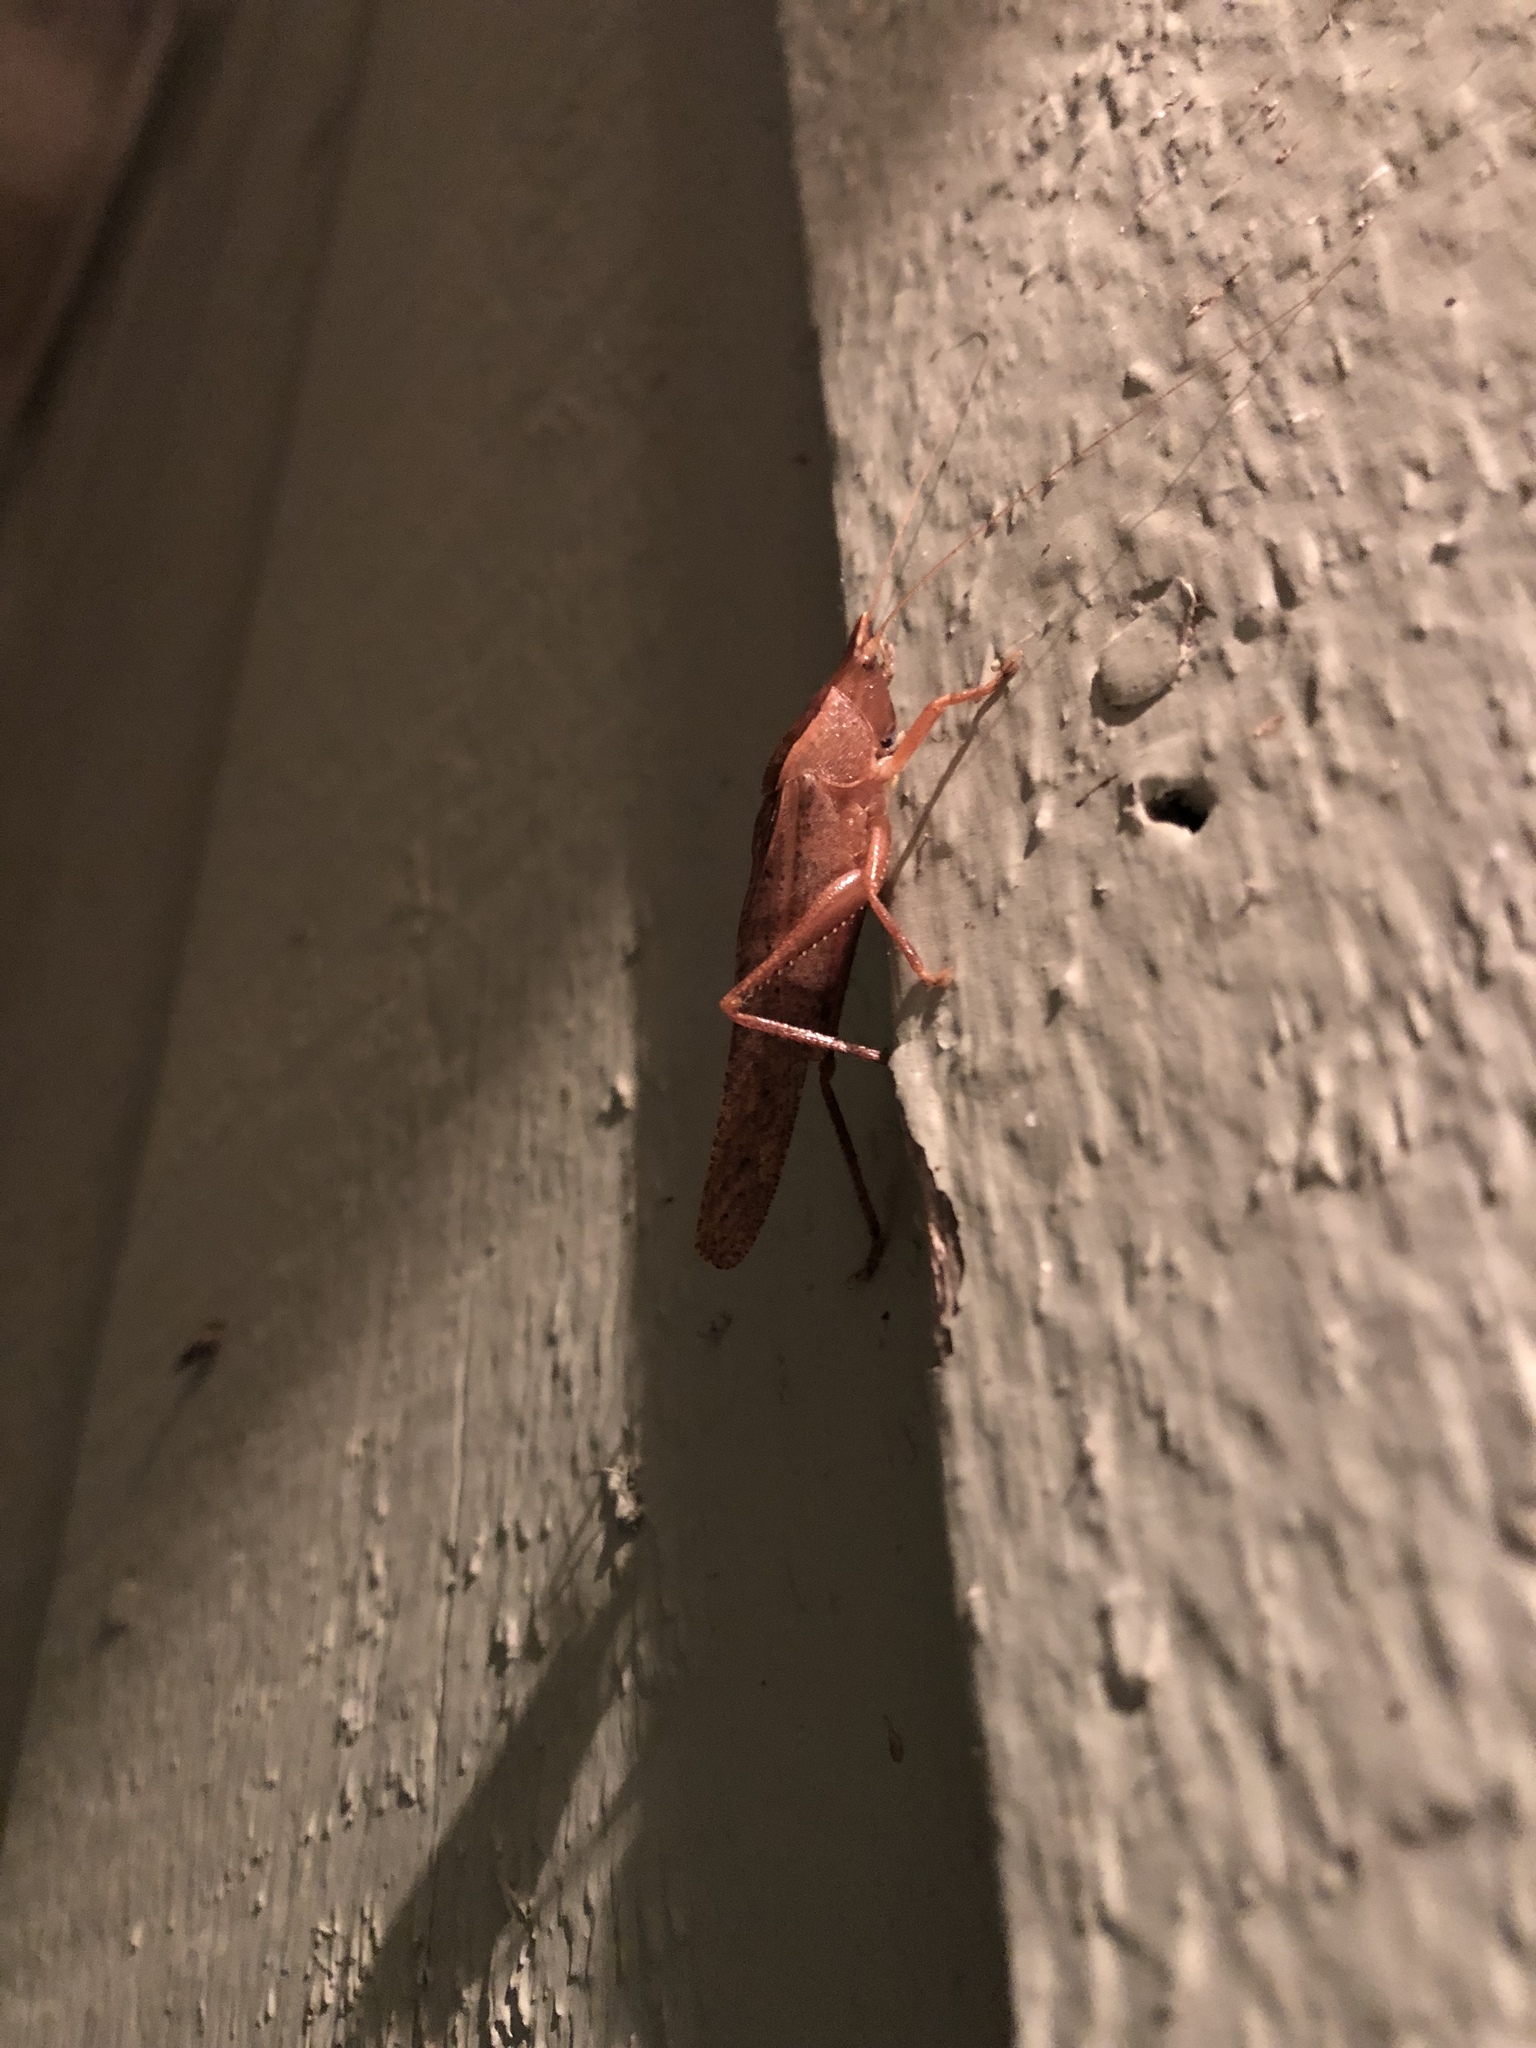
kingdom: Animalia
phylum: Arthropoda
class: Insecta
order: Orthoptera
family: Tettigoniidae
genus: Pyrgocorypha
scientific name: Pyrgocorypha uncinata
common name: Hook-faced conehead
